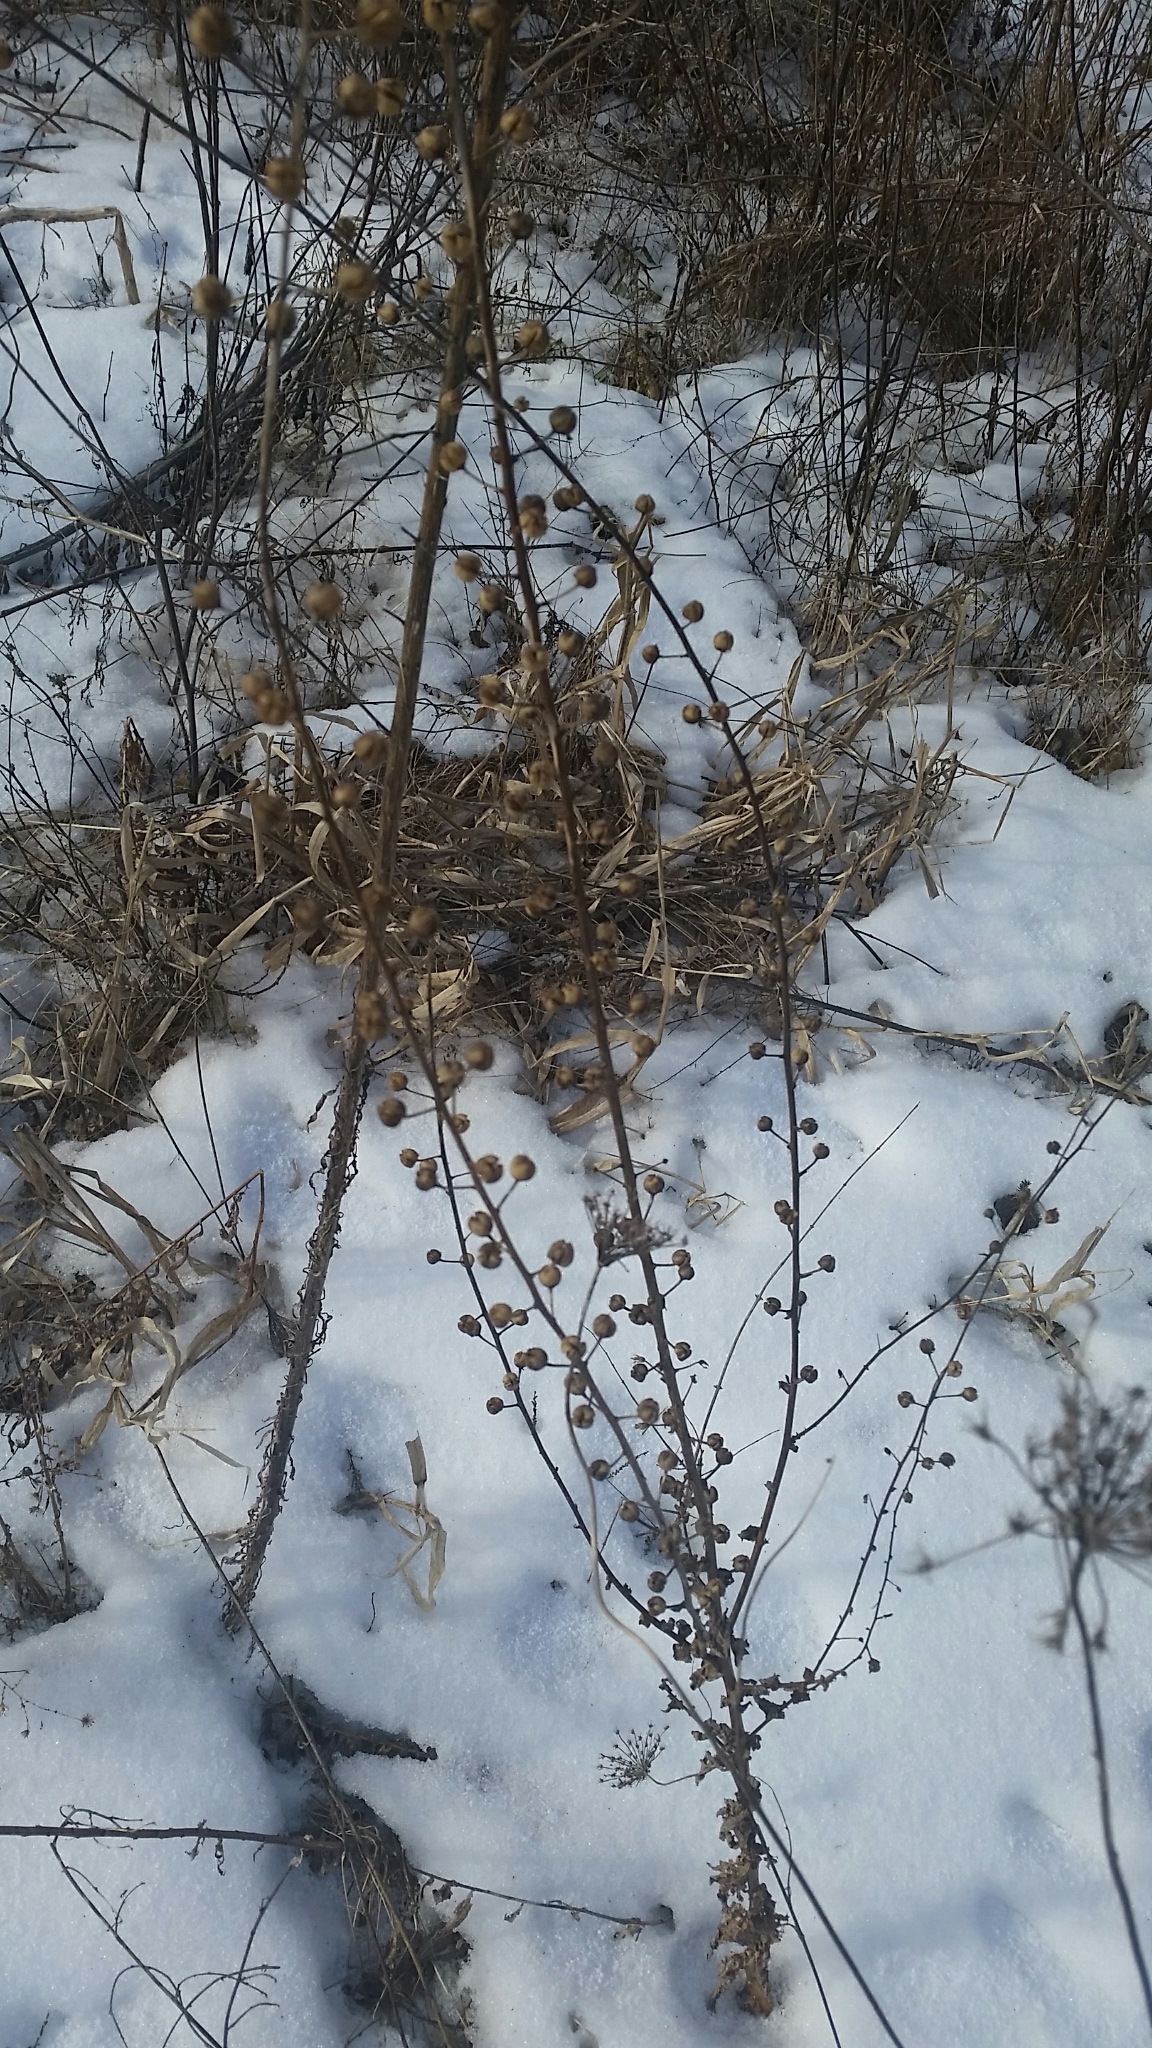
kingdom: Plantae
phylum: Tracheophyta
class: Magnoliopsida
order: Lamiales
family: Scrophulariaceae
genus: Verbascum
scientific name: Verbascum blattaria
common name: Moth mullein
